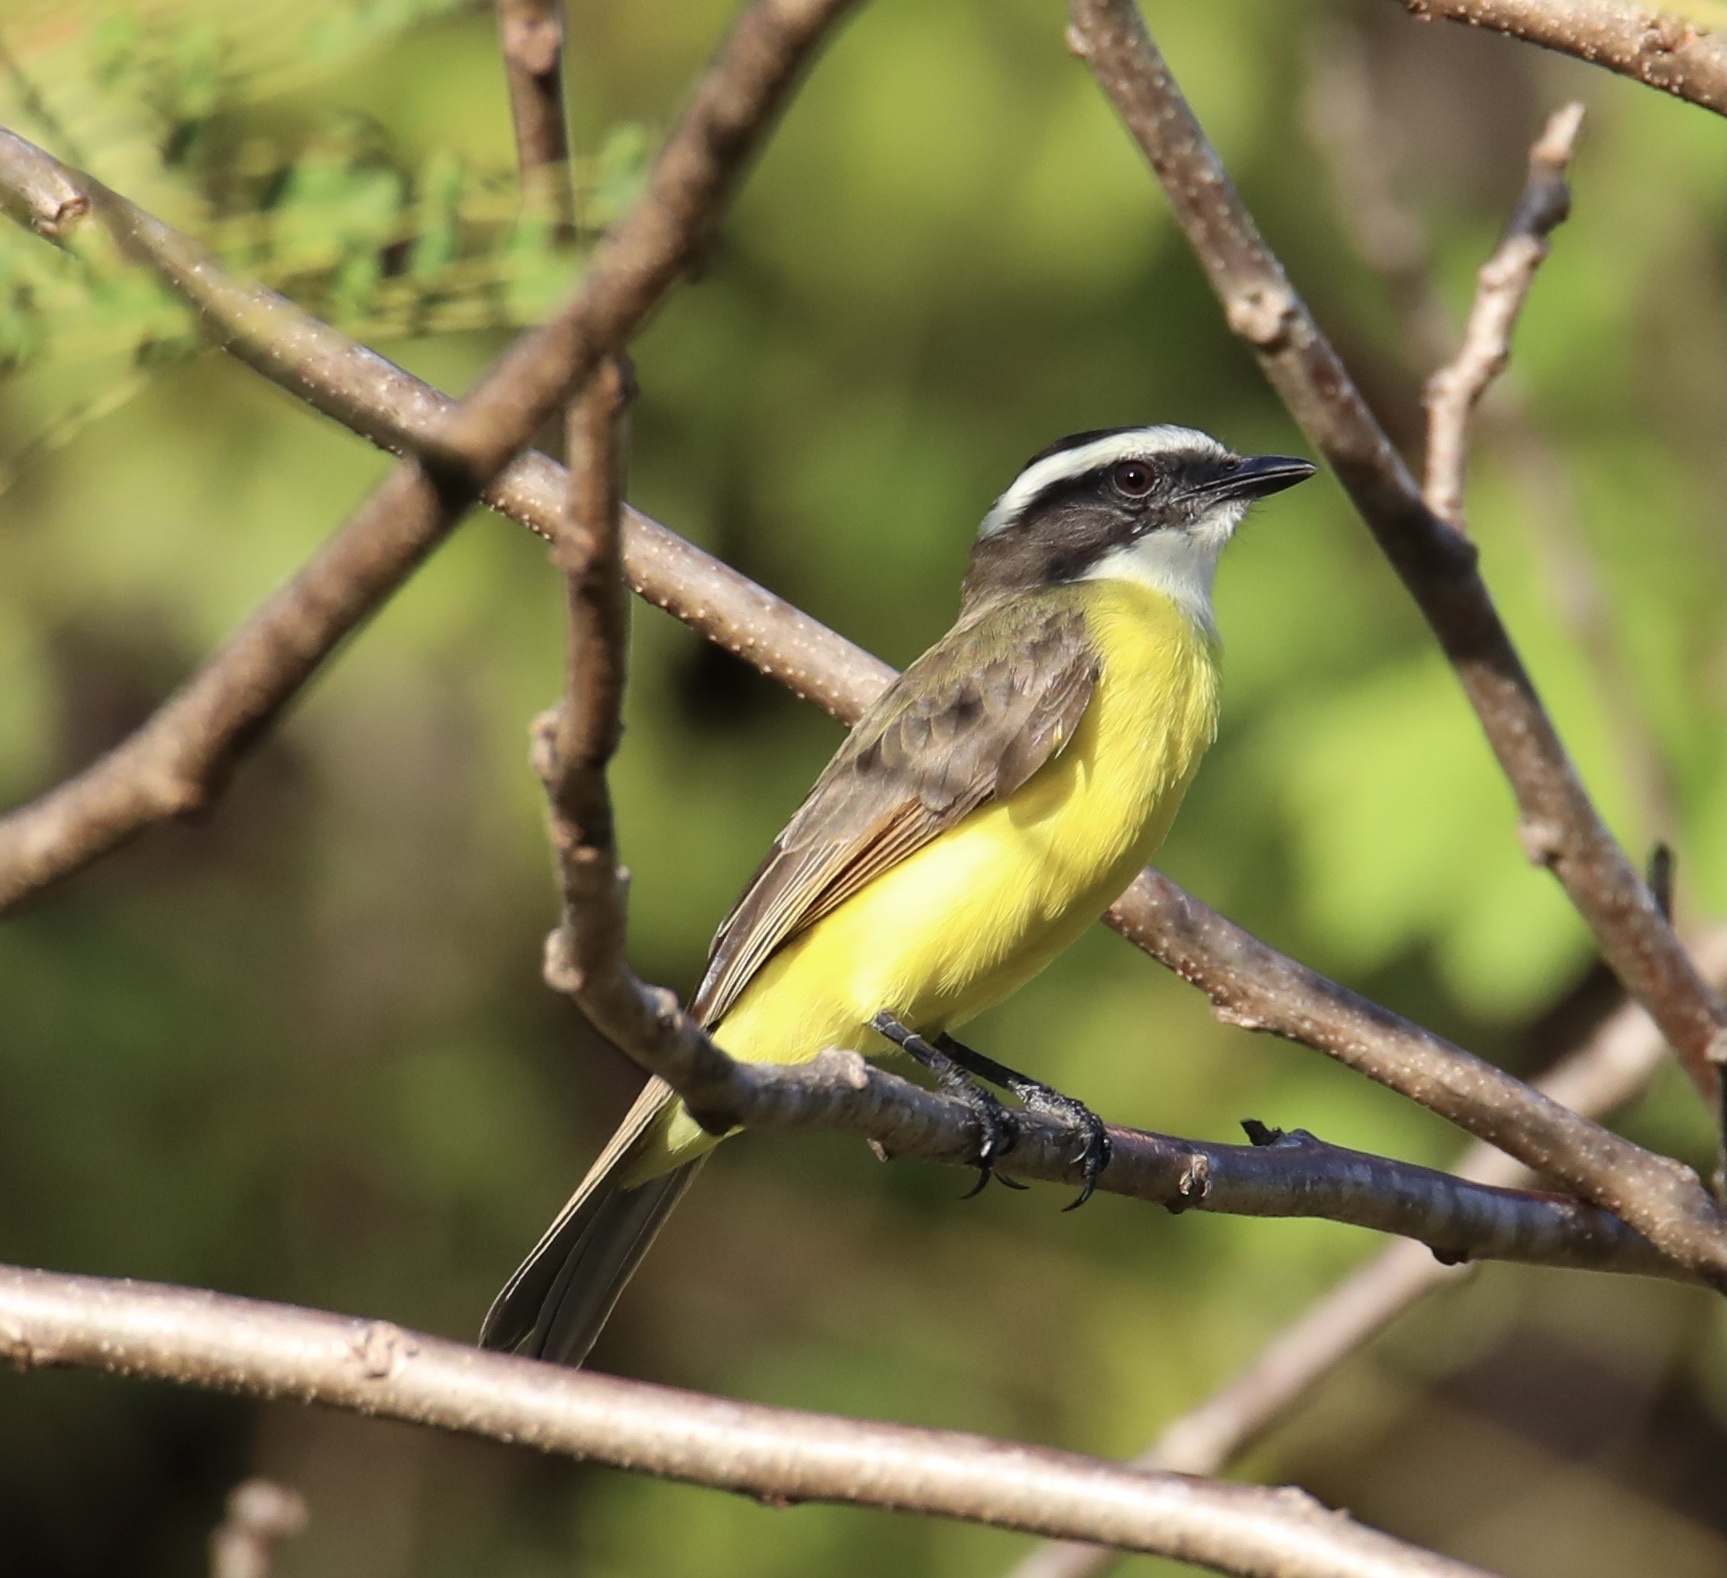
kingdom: Animalia
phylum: Chordata
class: Aves
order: Passeriformes
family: Tyrannidae
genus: Myiozetetes
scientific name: Myiozetetes cayanensis
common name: Rusty-margined flycatcher
